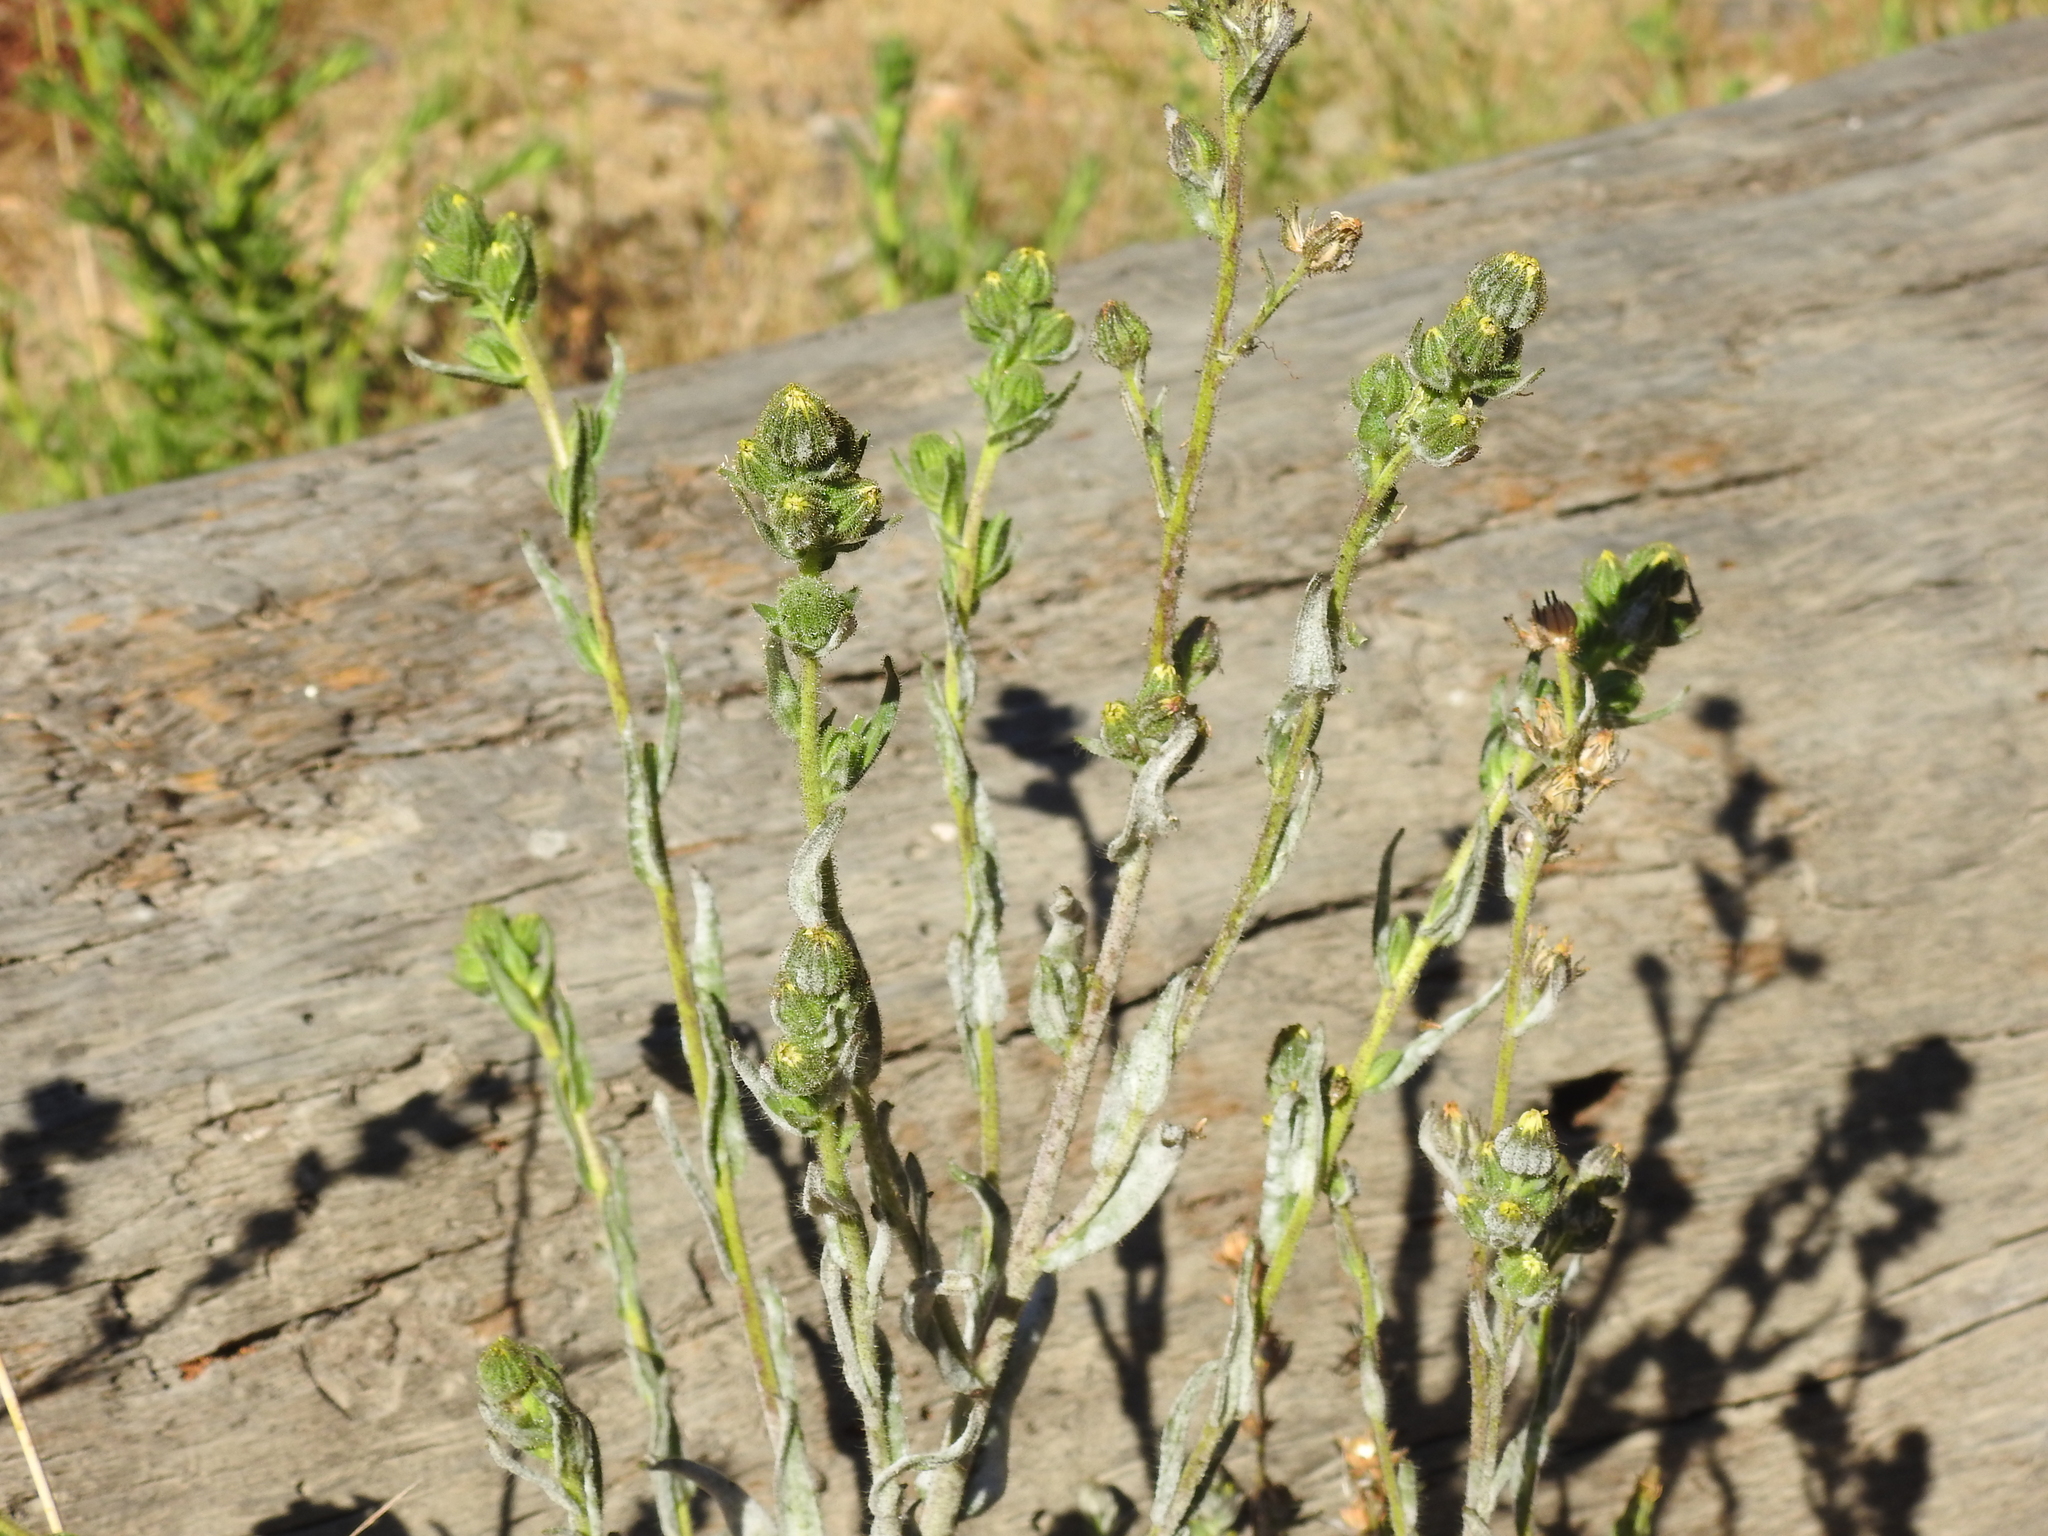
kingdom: Plantae
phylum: Tracheophyta
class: Magnoliopsida
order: Asterales
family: Asteraceae
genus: Madia
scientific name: Madia sativa
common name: Coast tarweed
